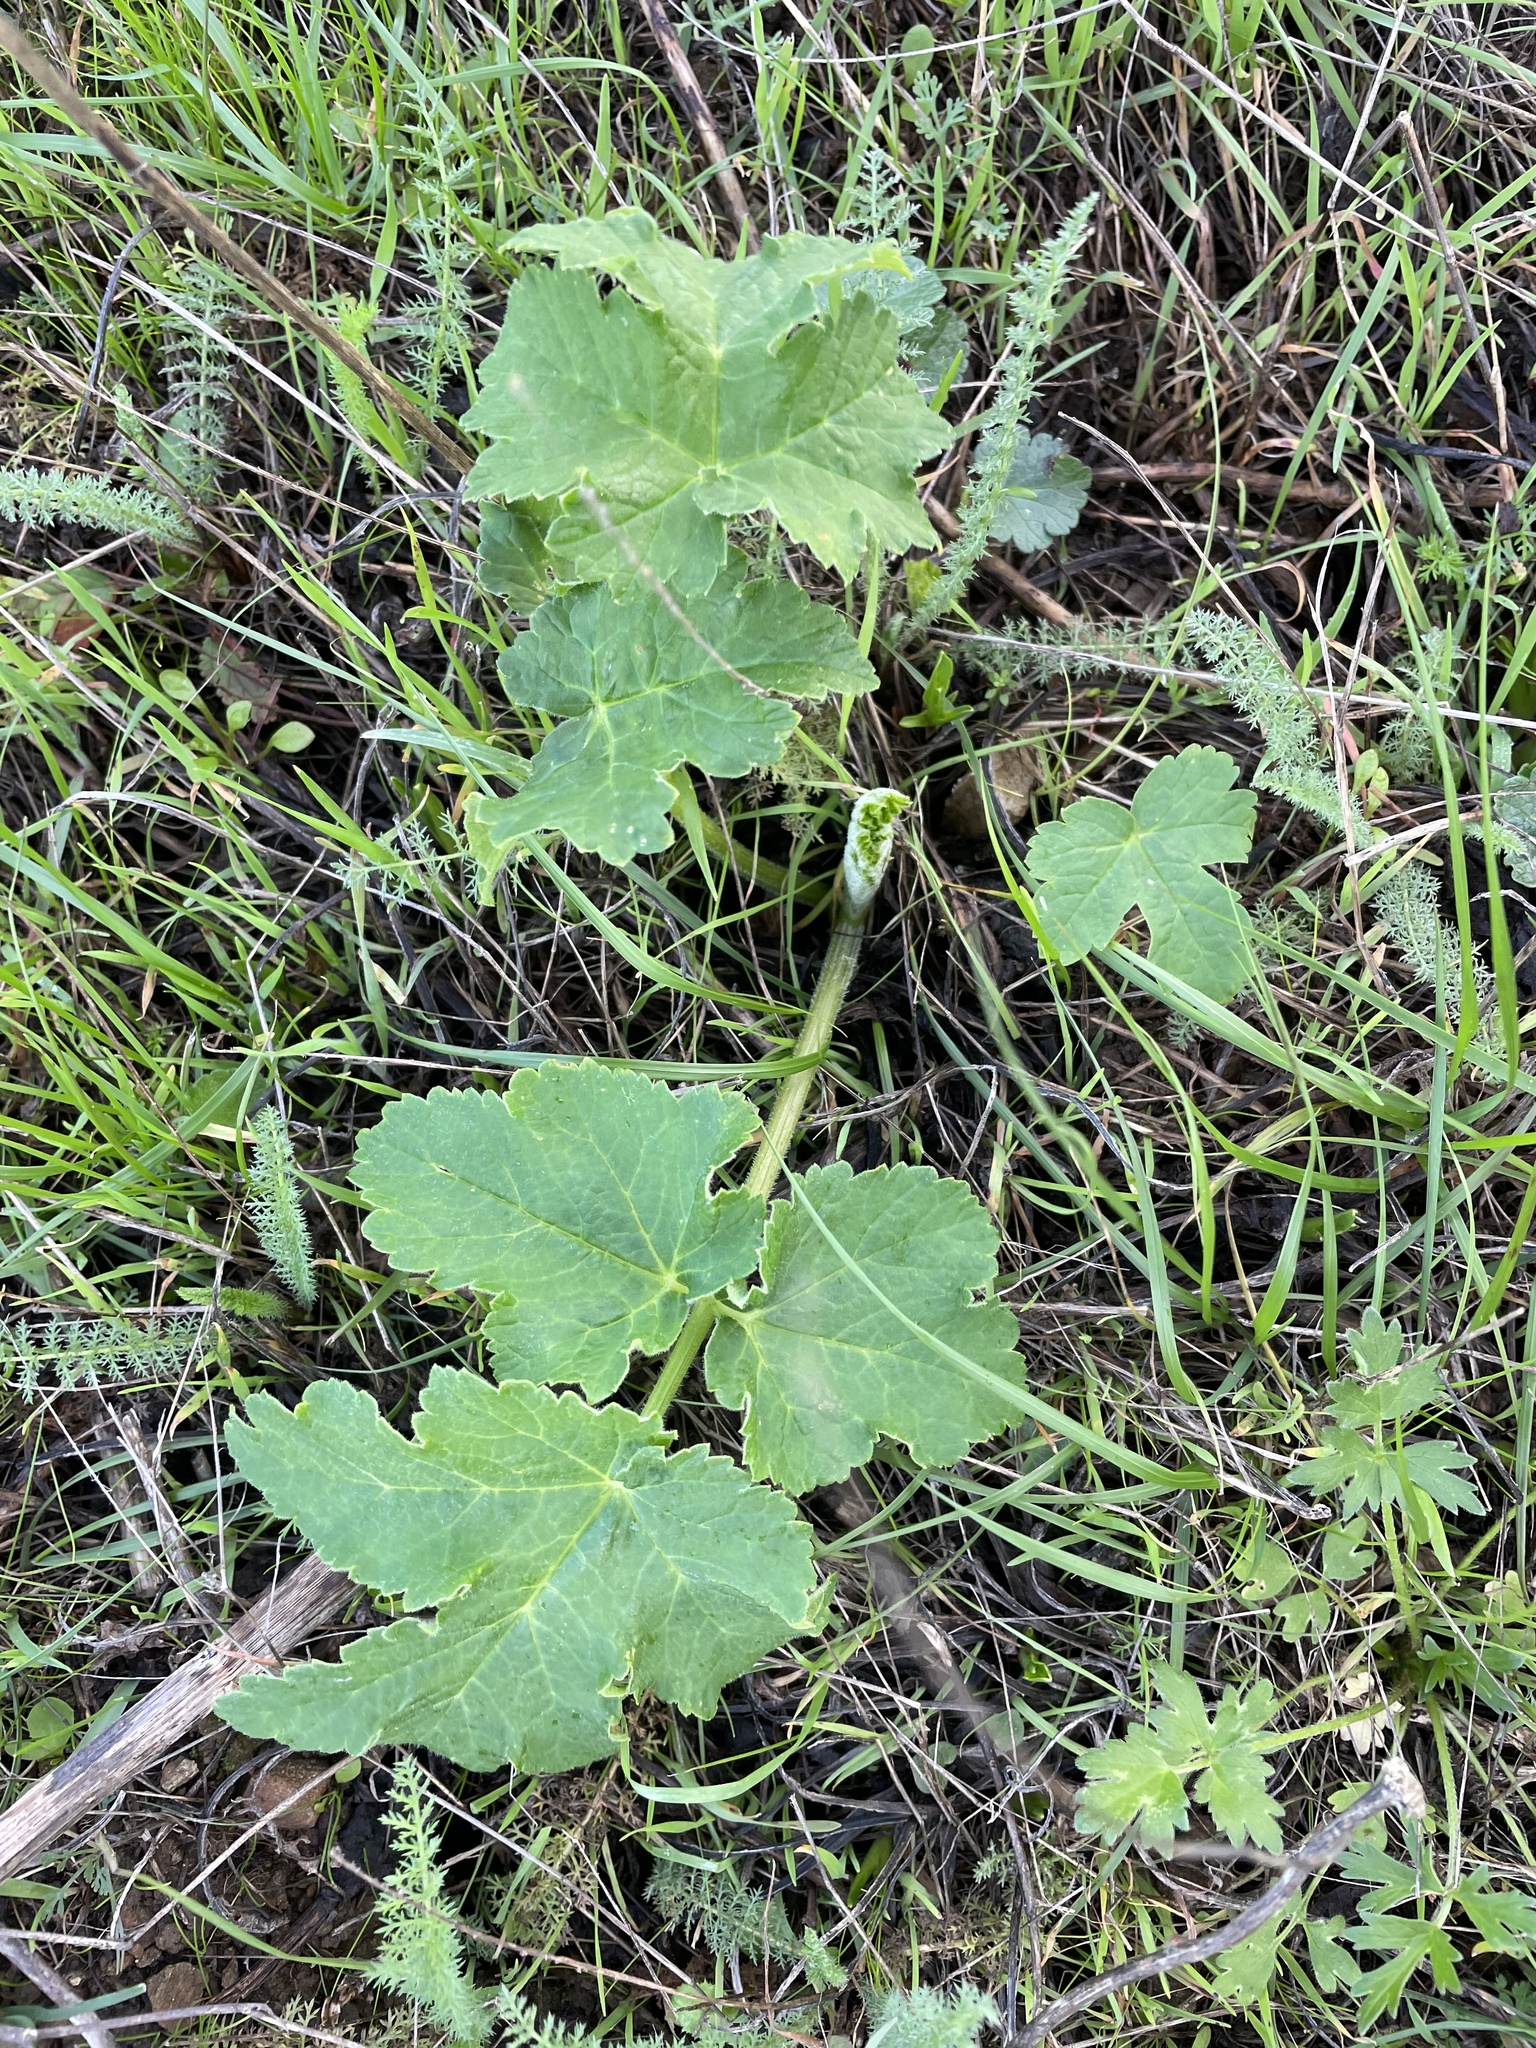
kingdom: Plantae
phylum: Tracheophyta
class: Magnoliopsida
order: Apiales
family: Apiaceae
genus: Heracleum
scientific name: Heracleum maximum
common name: American cow parsnip
